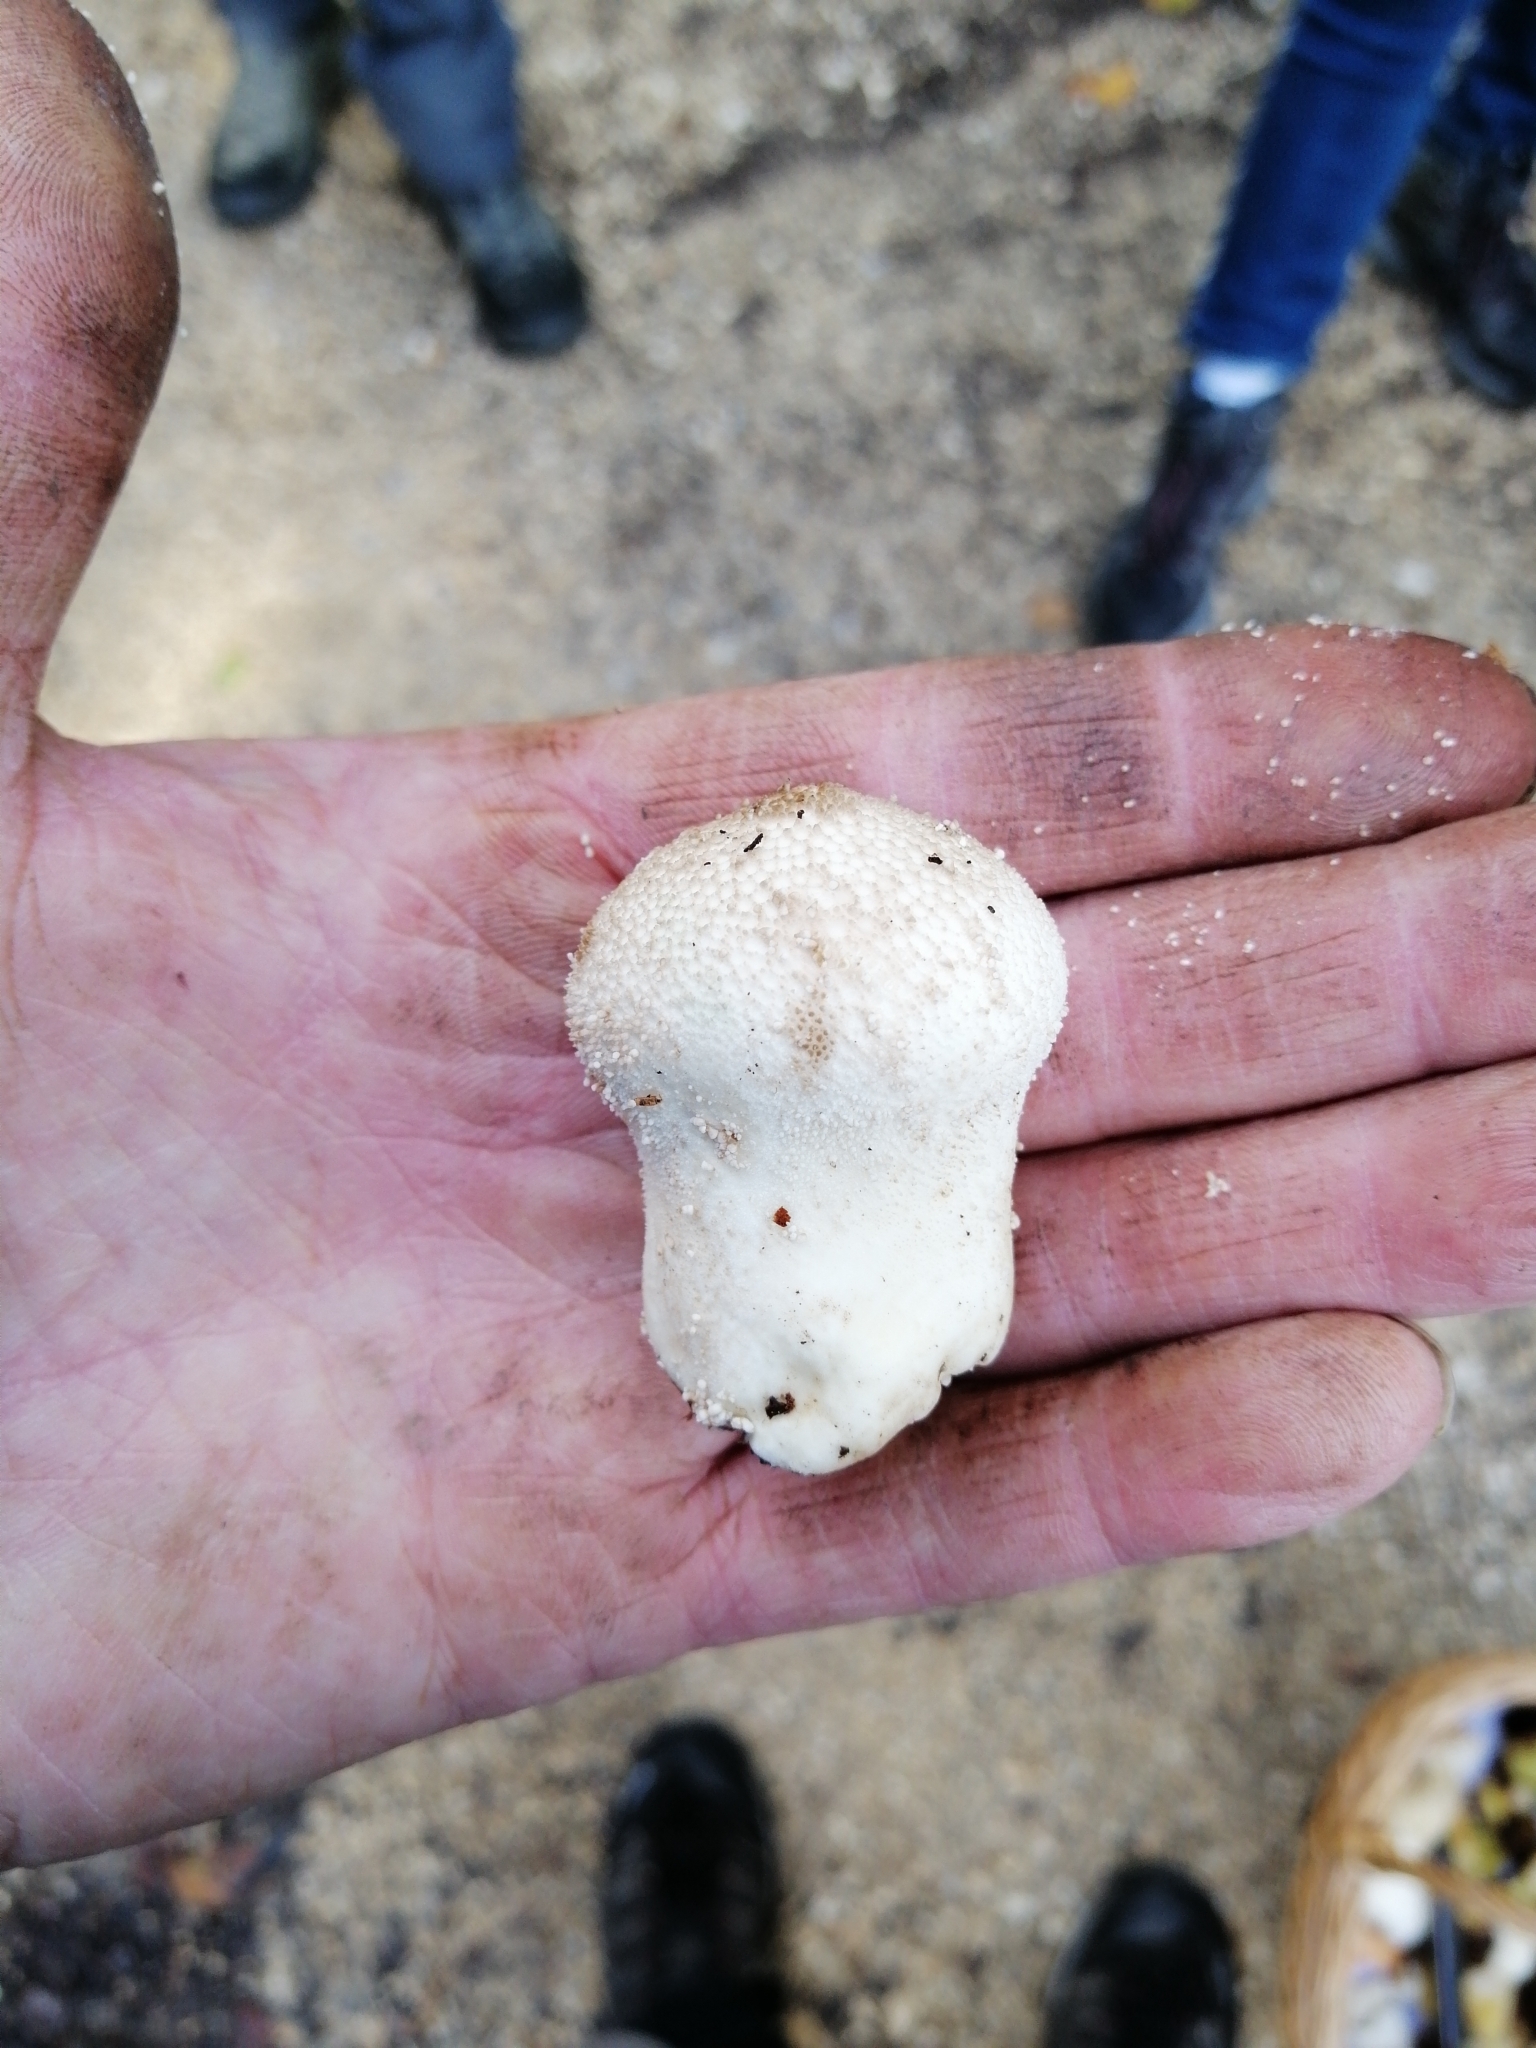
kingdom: Fungi
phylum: Basidiomycota
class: Agaricomycetes
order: Agaricales
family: Lycoperdaceae
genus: Lycoperdon
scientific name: Lycoperdon perlatum
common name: Common puffball
